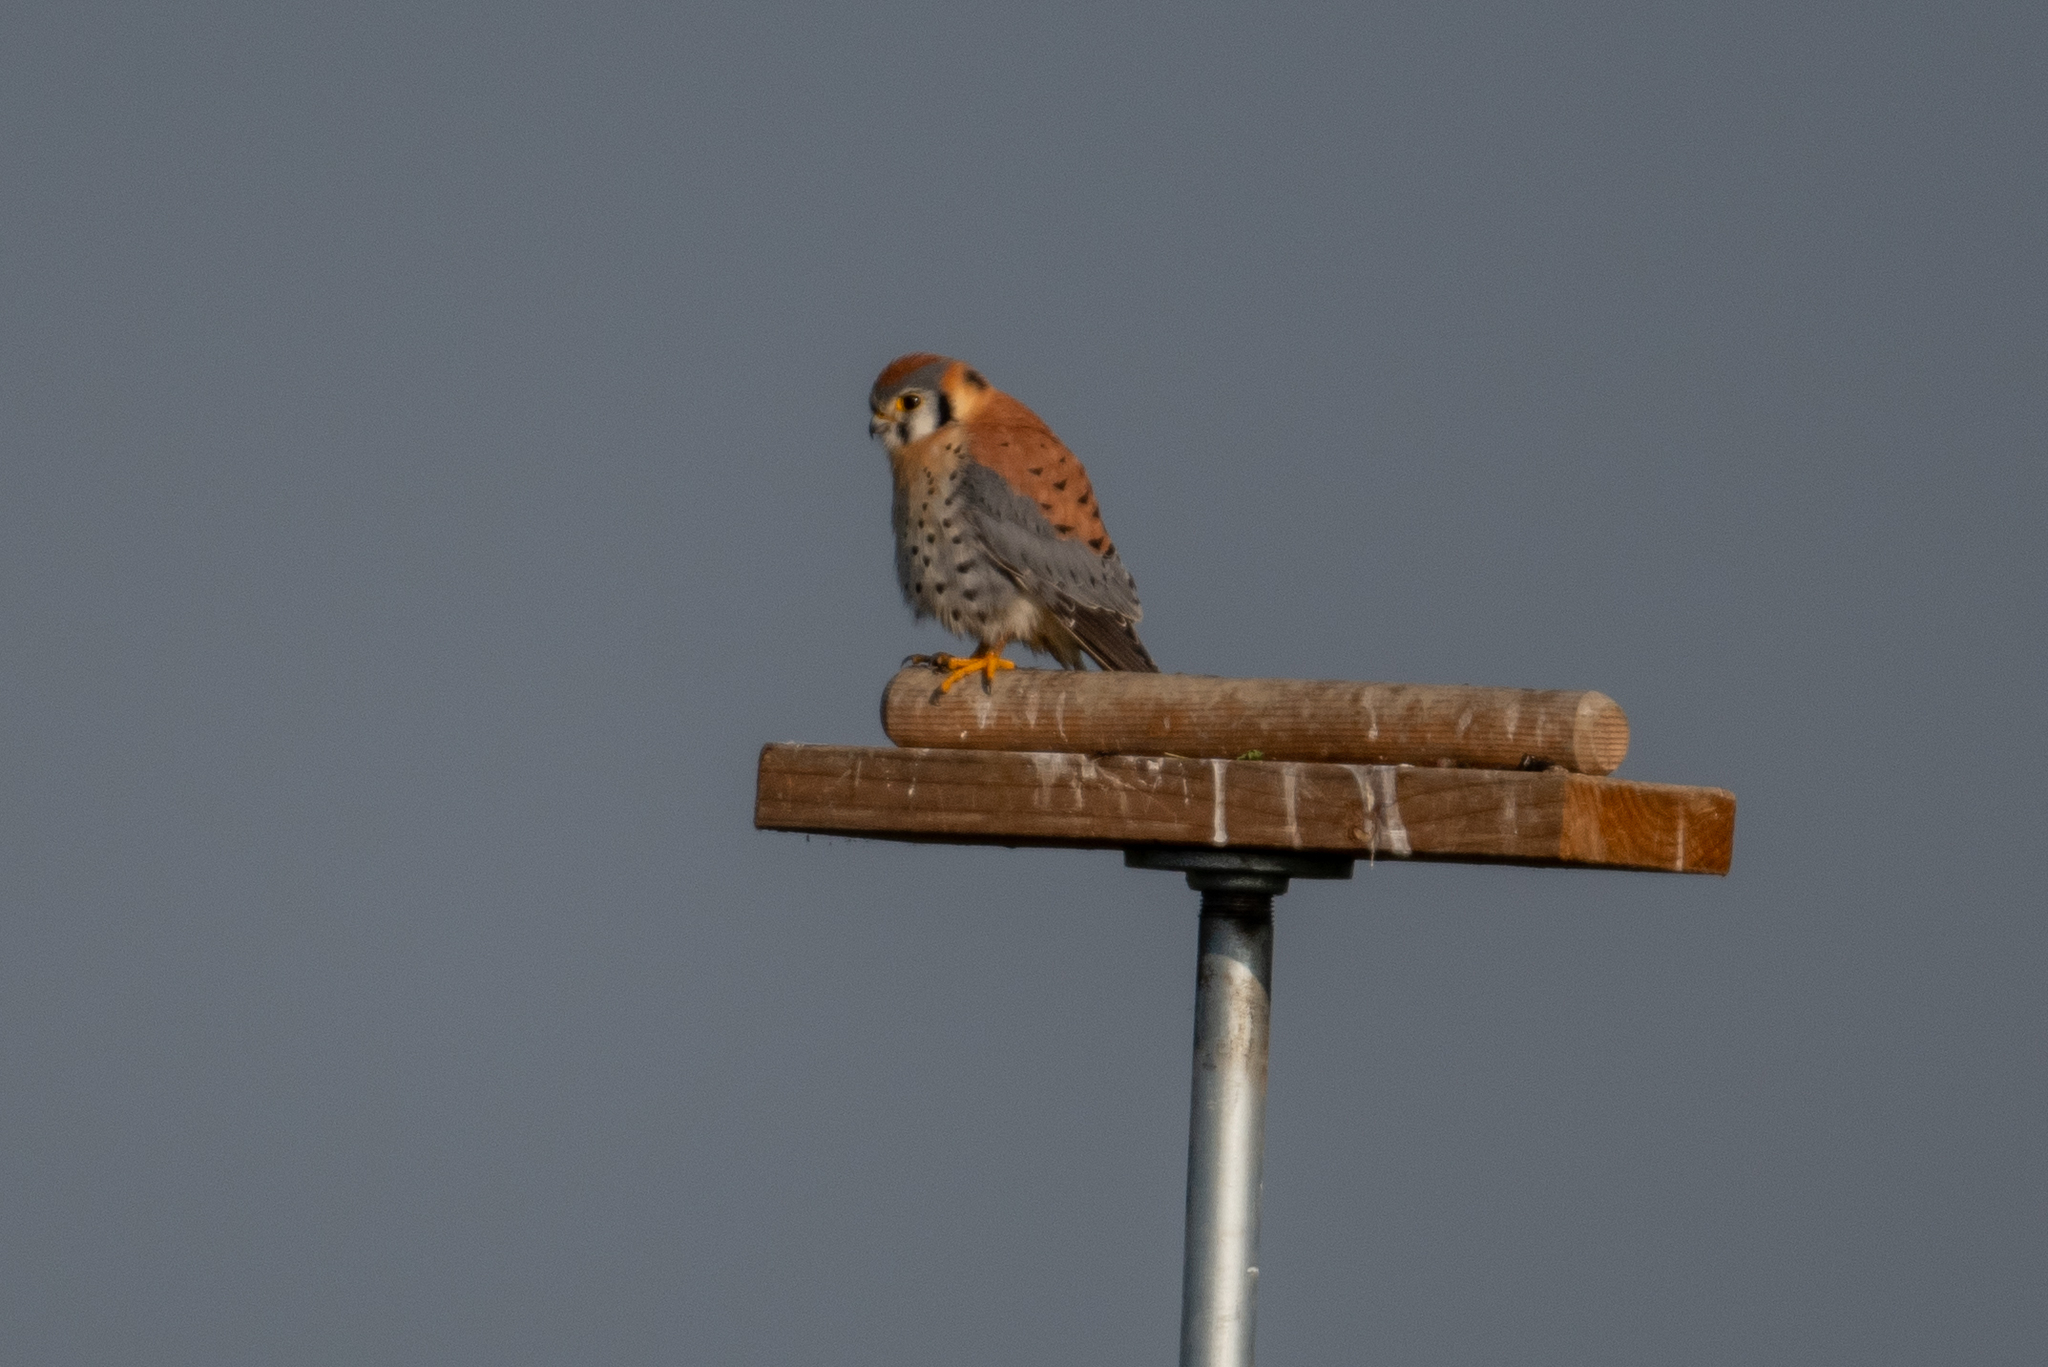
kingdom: Animalia
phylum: Chordata
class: Aves
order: Falconiformes
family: Falconidae
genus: Falco
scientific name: Falco sparverius
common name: American kestrel
